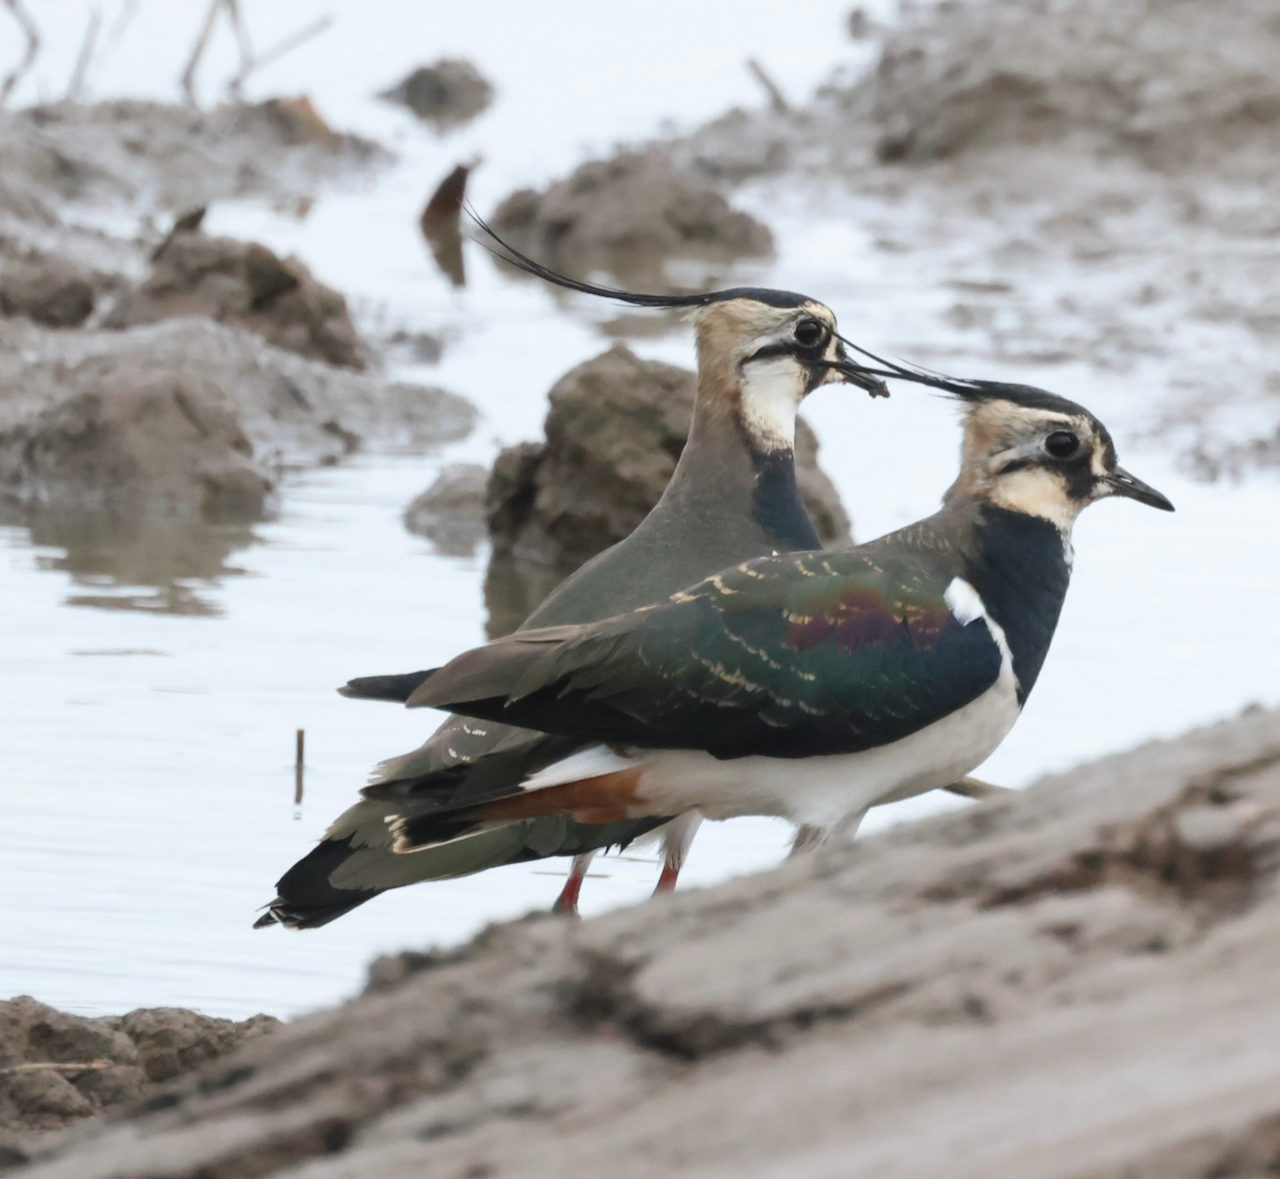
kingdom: Animalia
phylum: Chordata
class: Aves
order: Charadriiformes
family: Charadriidae
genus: Vanellus
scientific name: Vanellus vanellus
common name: Northern lapwing
